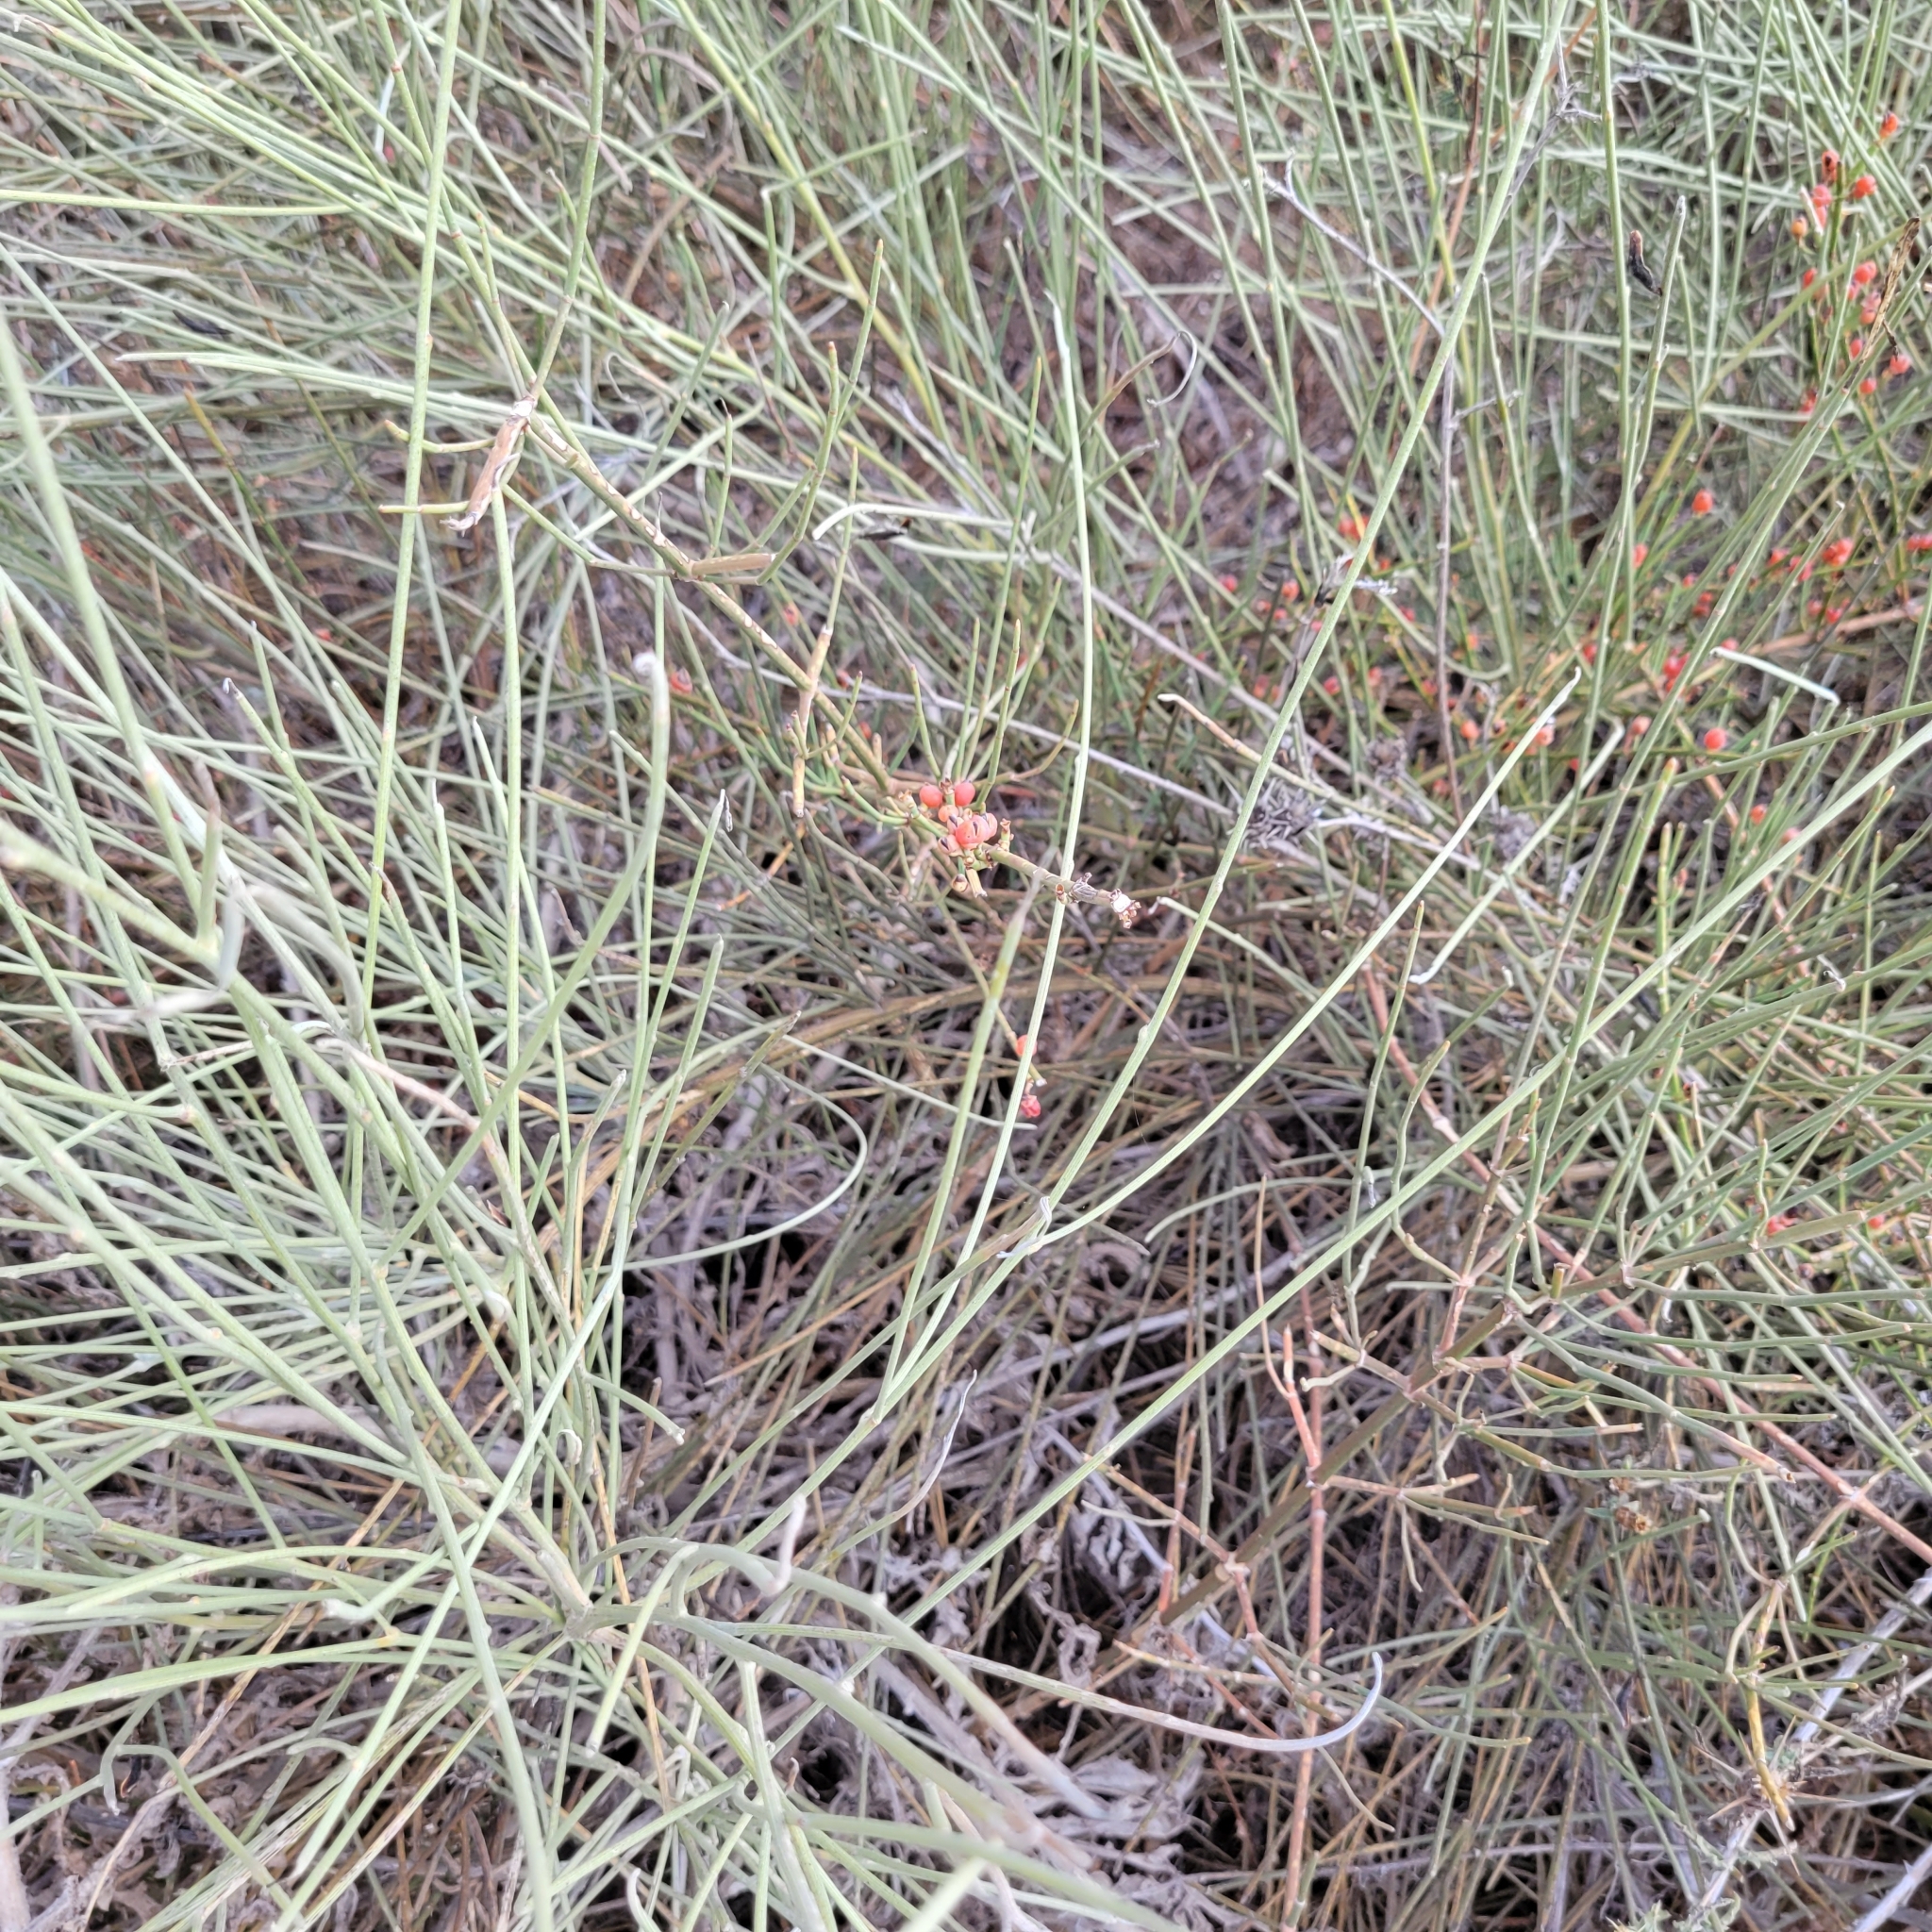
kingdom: Plantae
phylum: Tracheophyta
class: Gnetopsida
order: Ephedrales
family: Ephedraceae
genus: Ephedra
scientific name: Ephedra foeminea
